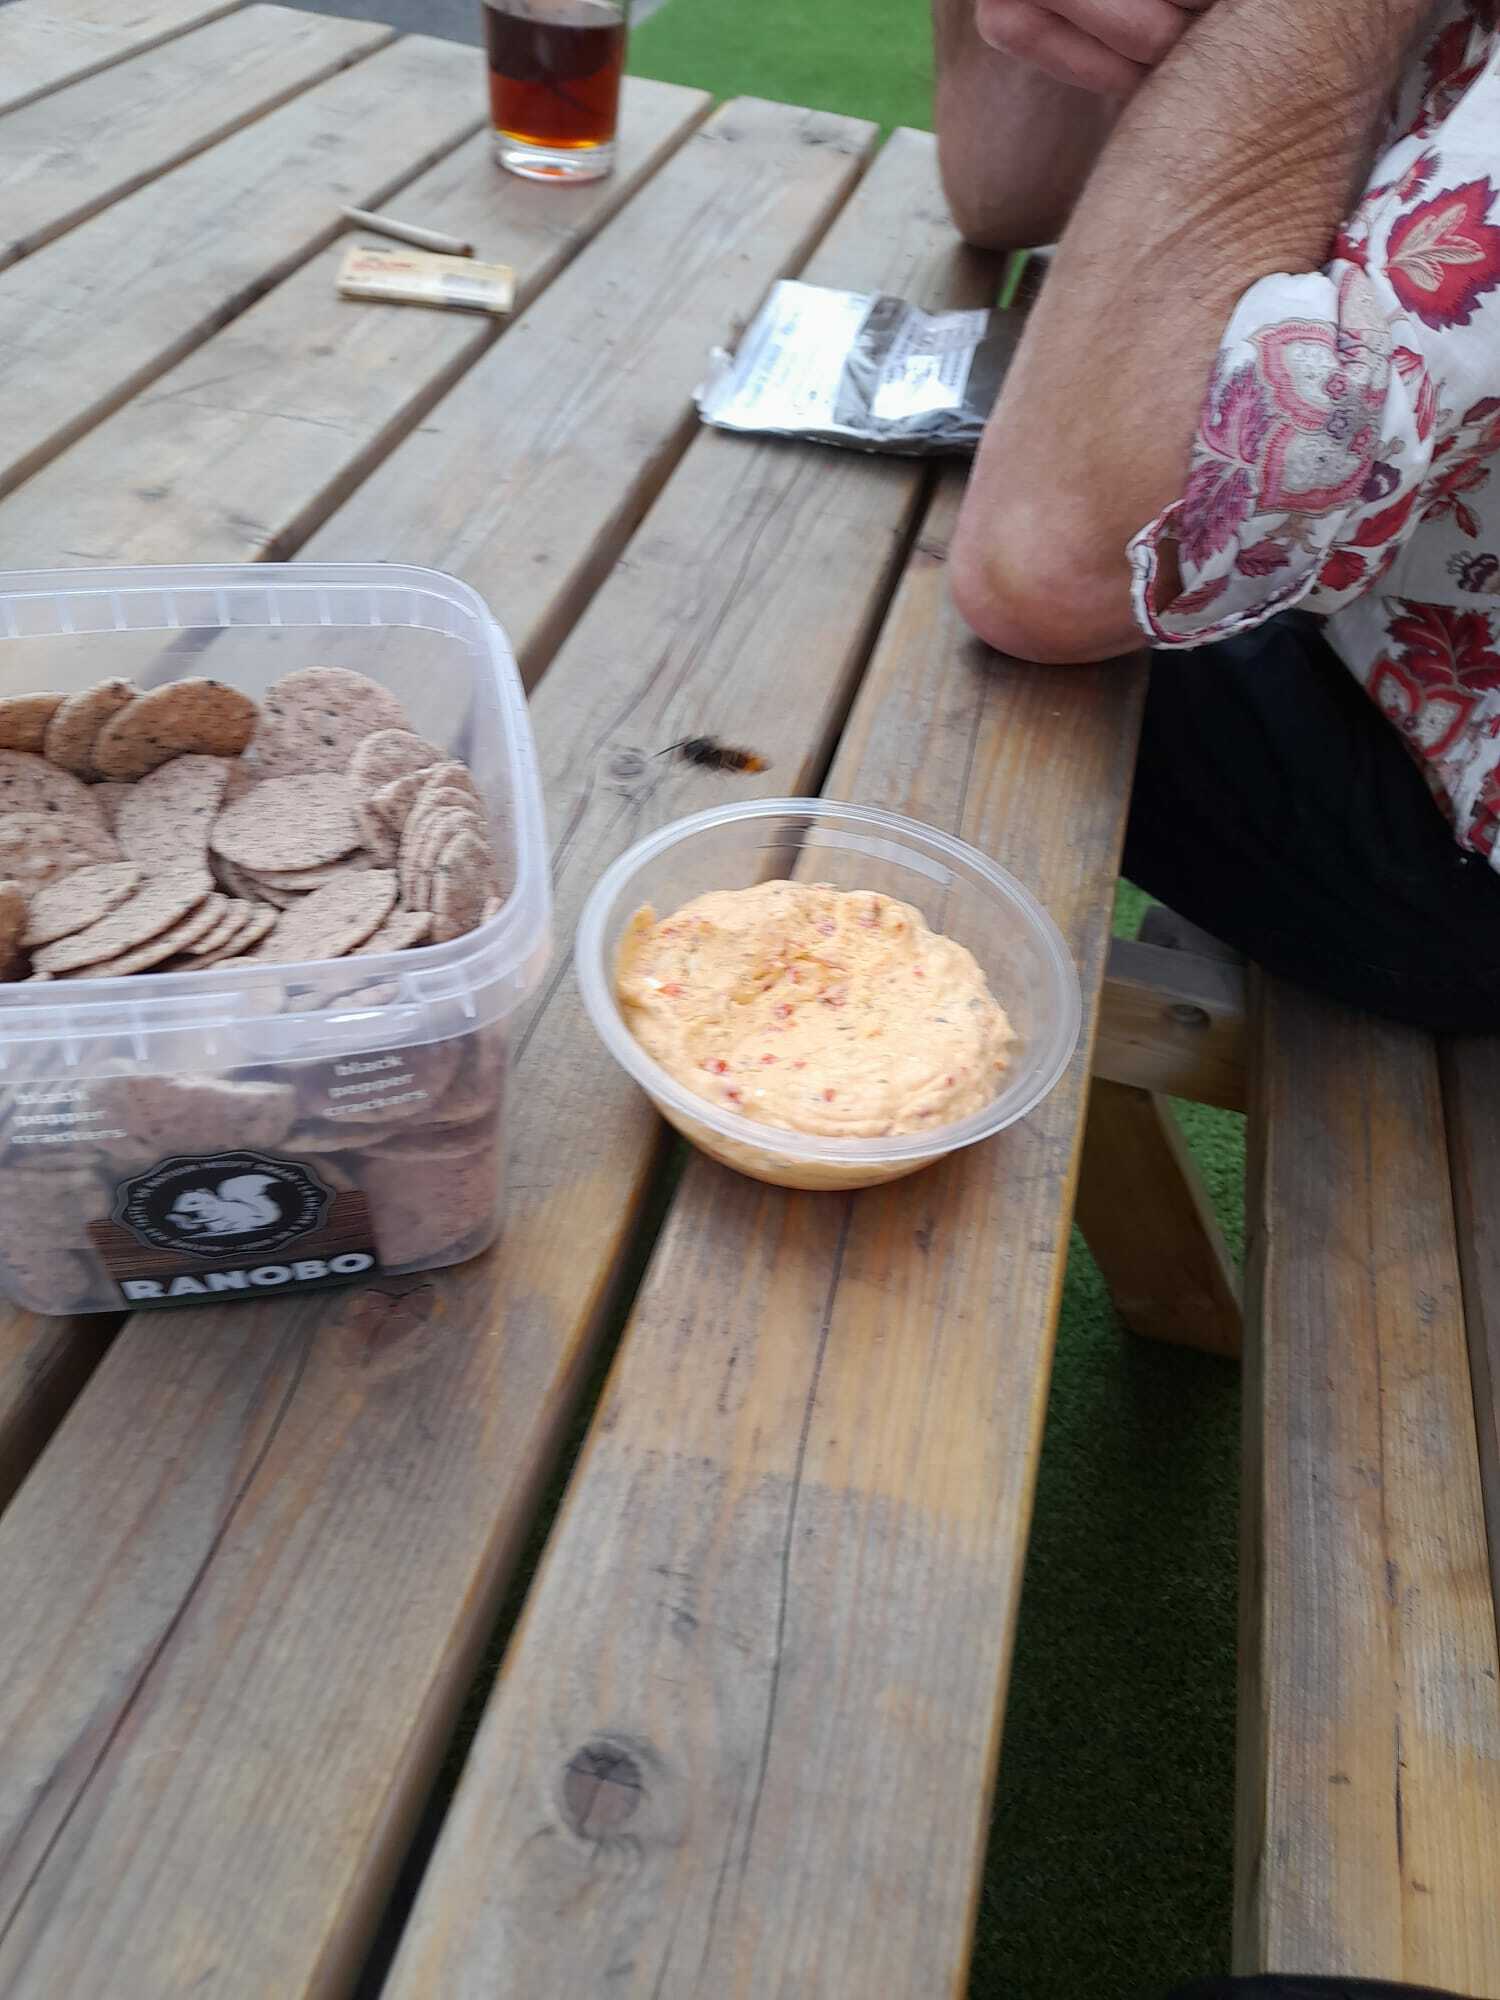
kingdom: Animalia
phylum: Arthropoda
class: Insecta
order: Hymenoptera
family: Vespidae
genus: Vespa
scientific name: Vespa velutina
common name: Asian hornet
